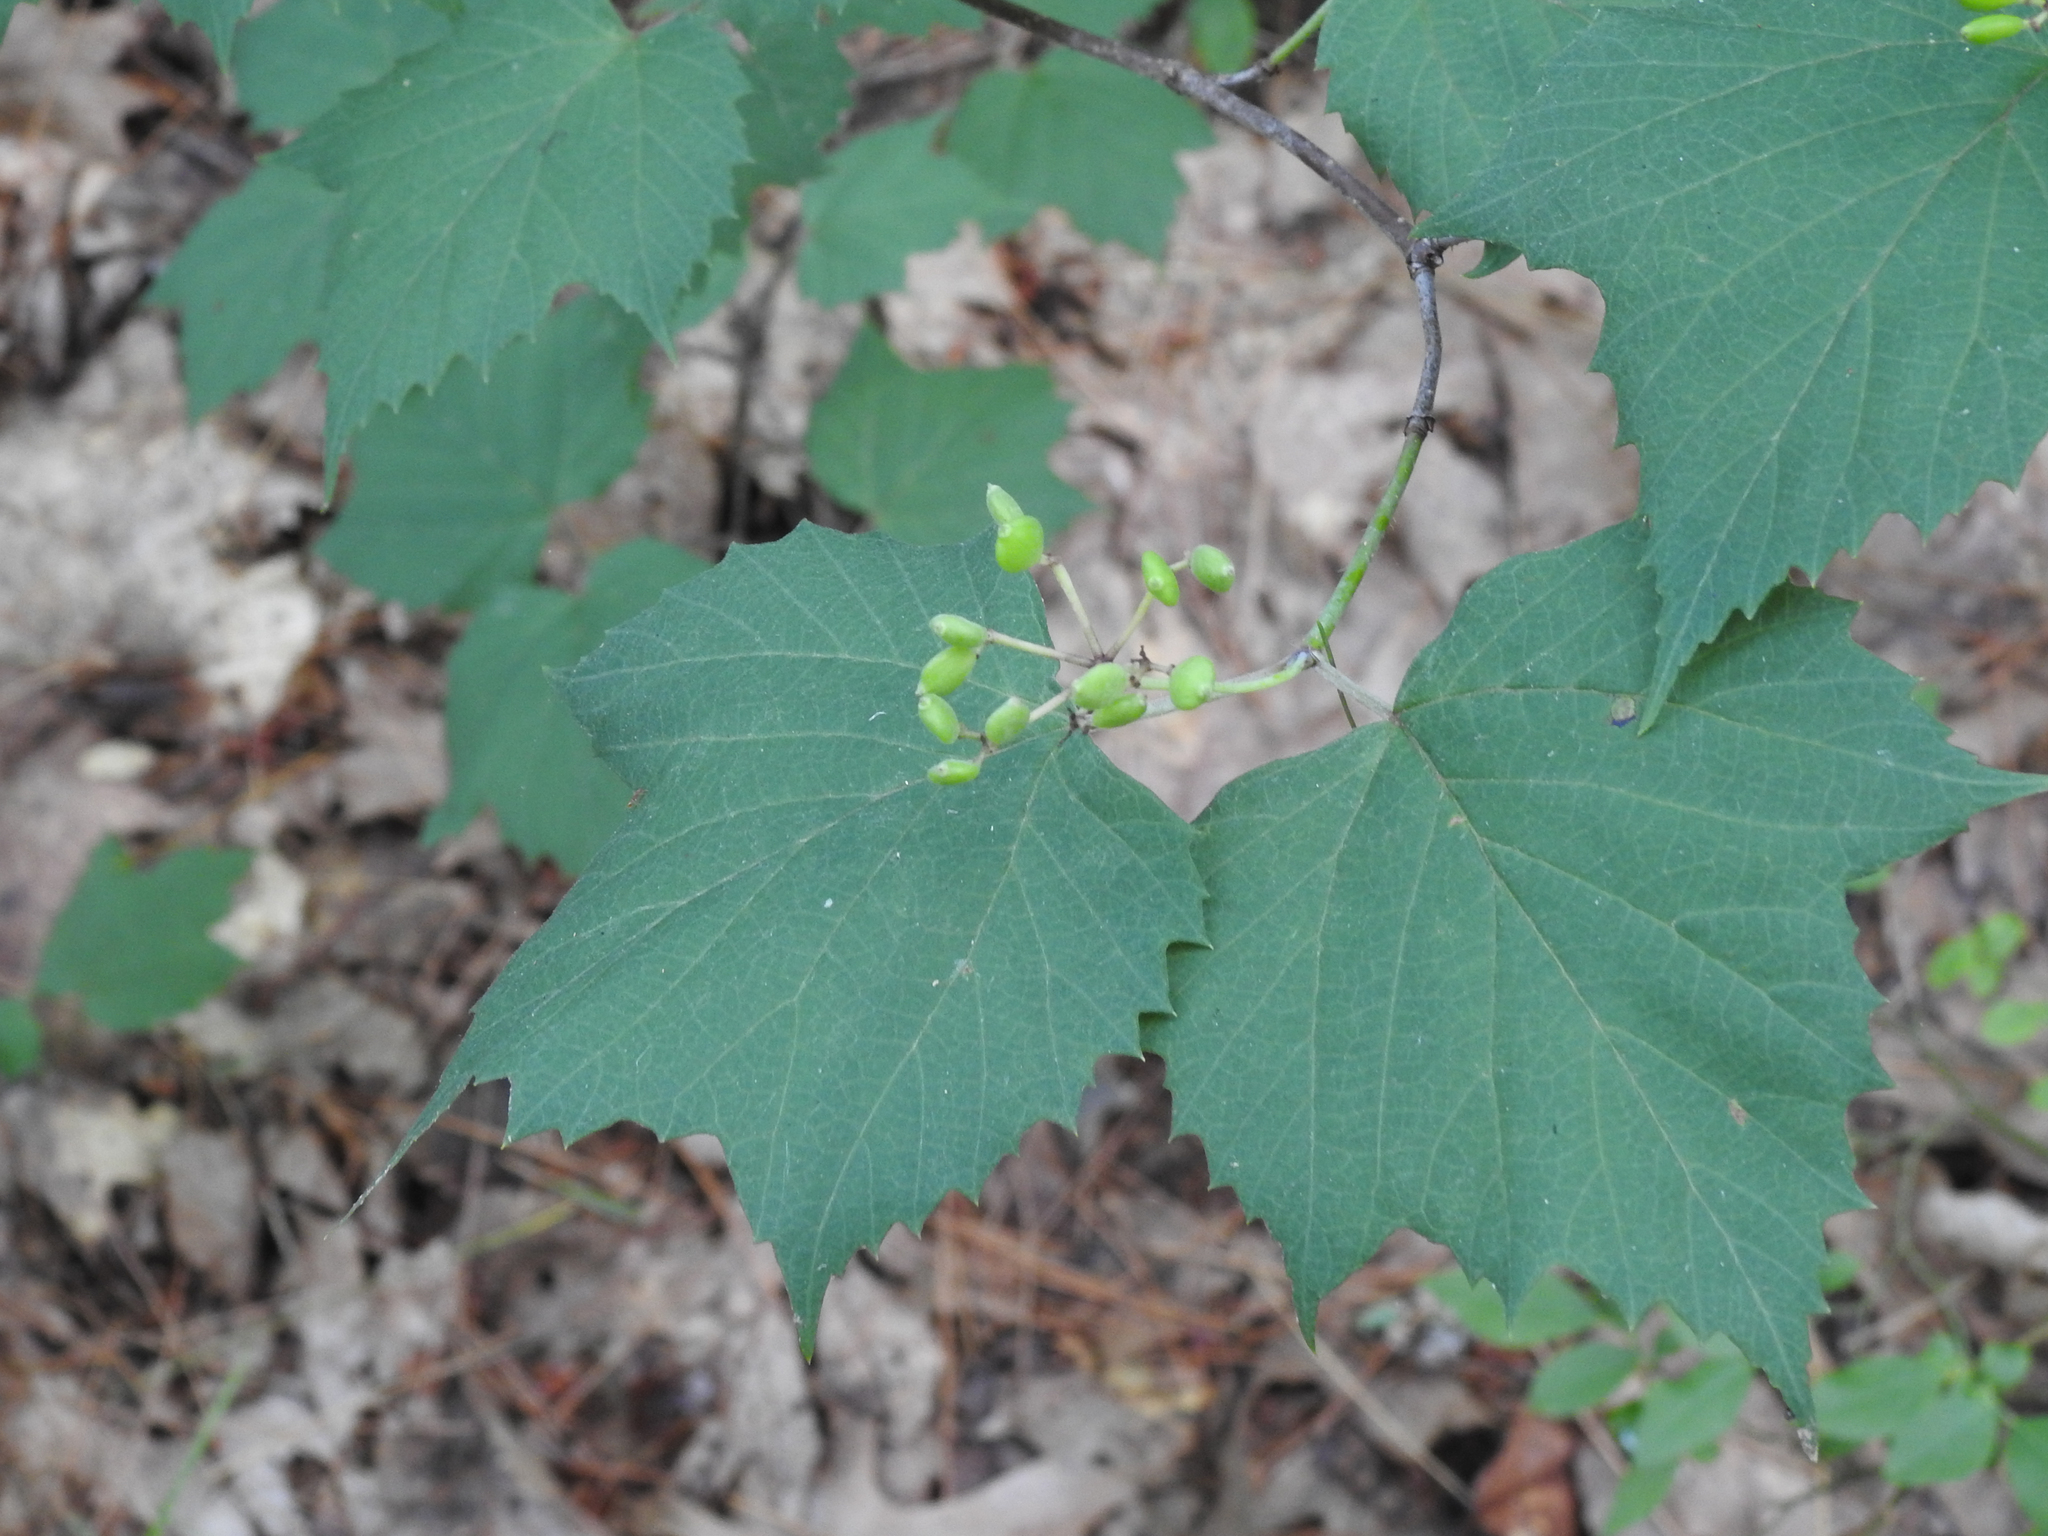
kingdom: Plantae
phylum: Tracheophyta
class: Magnoliopsida
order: Dipsacales
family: Viburnaceae
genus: Viburnum
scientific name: Viburnum acerifolium
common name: Dockmackie
